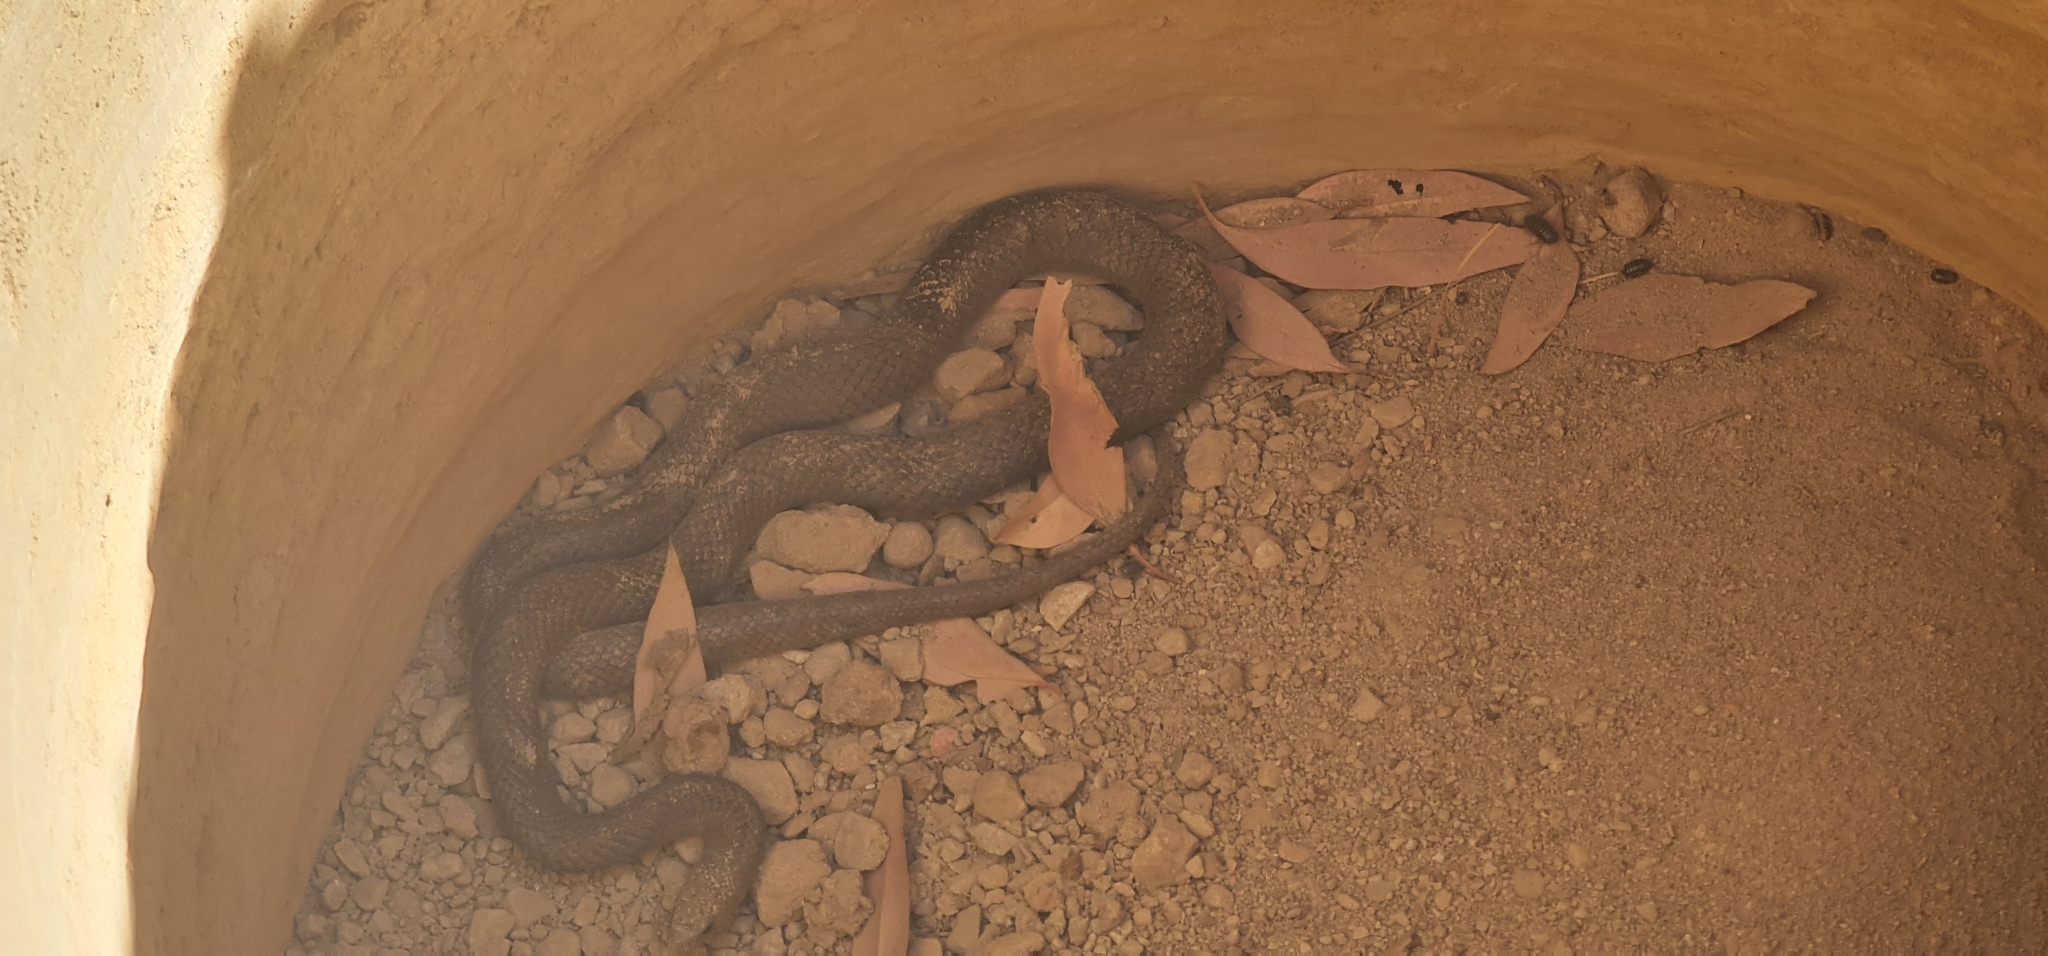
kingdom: Animalia
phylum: Chordata
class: Squamata
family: Elapidae
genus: Pseudonaja
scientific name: Pseudonaja textilis
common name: Eastern brown snake
